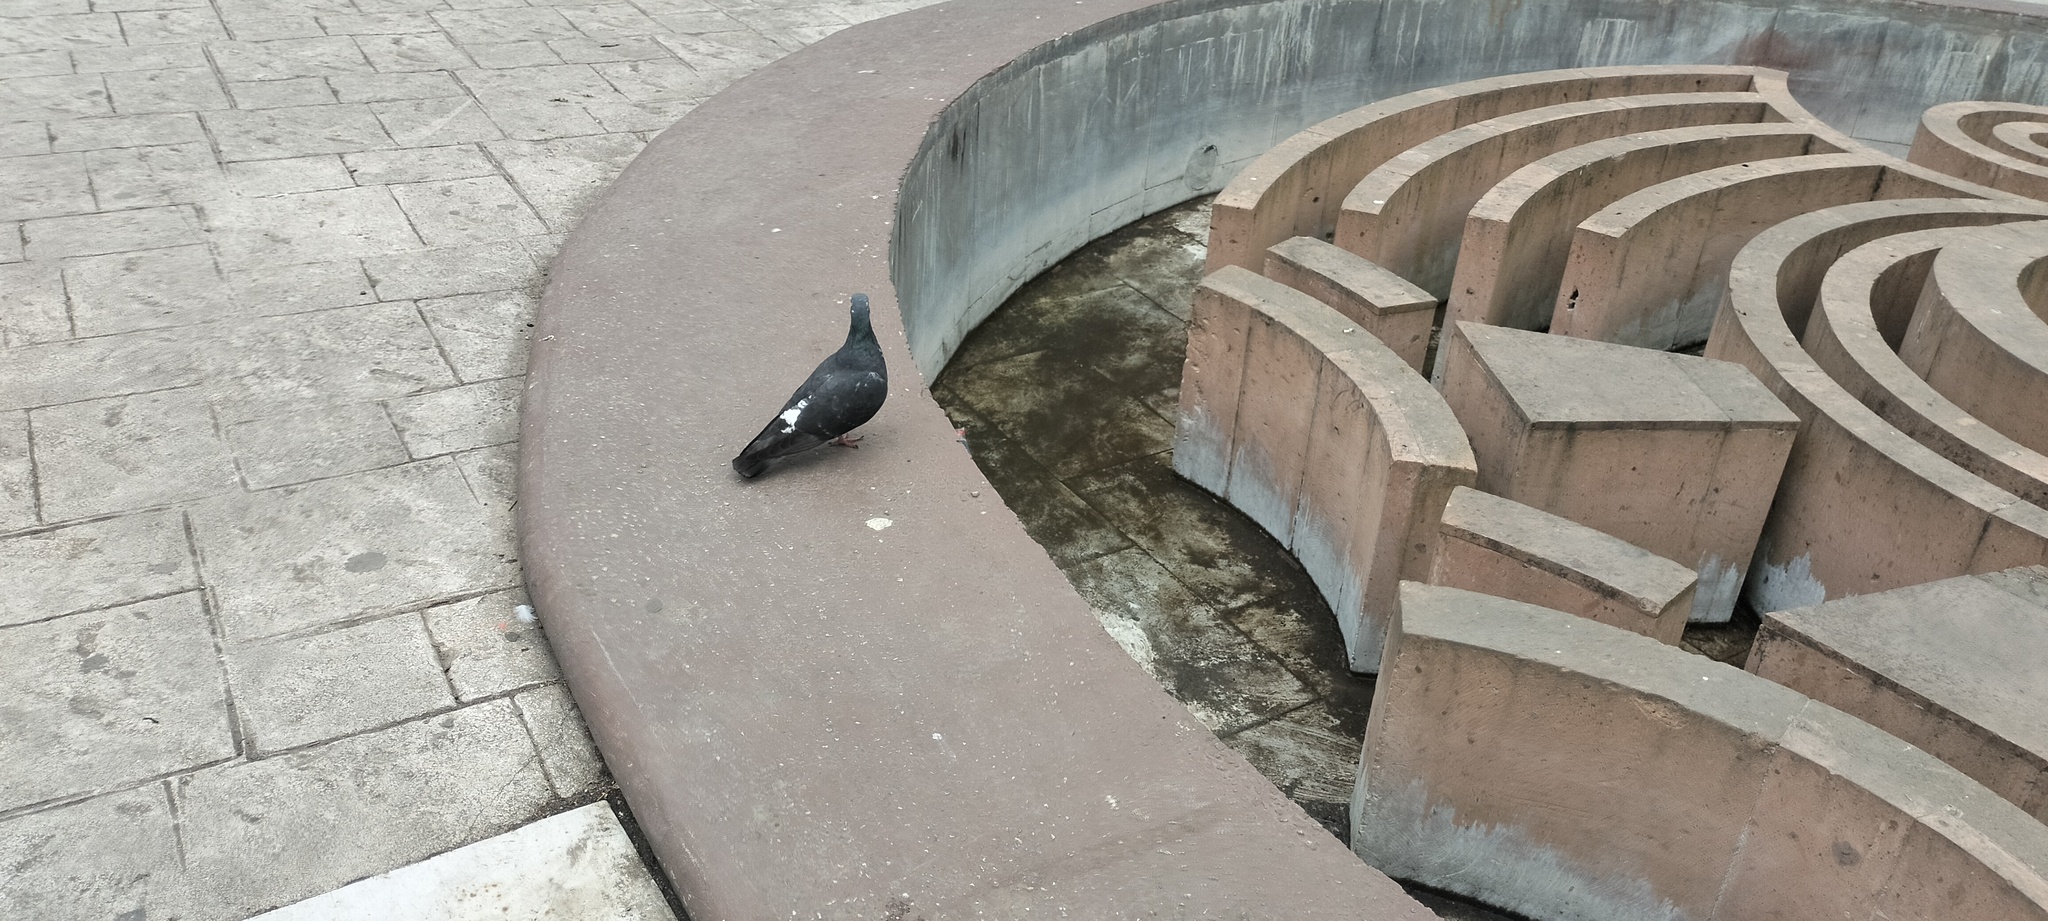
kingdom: Animalia
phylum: Chordata
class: Aves
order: Columbiformes
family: Columbidae
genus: Columba
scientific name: Columba livia
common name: Rock pigeon
